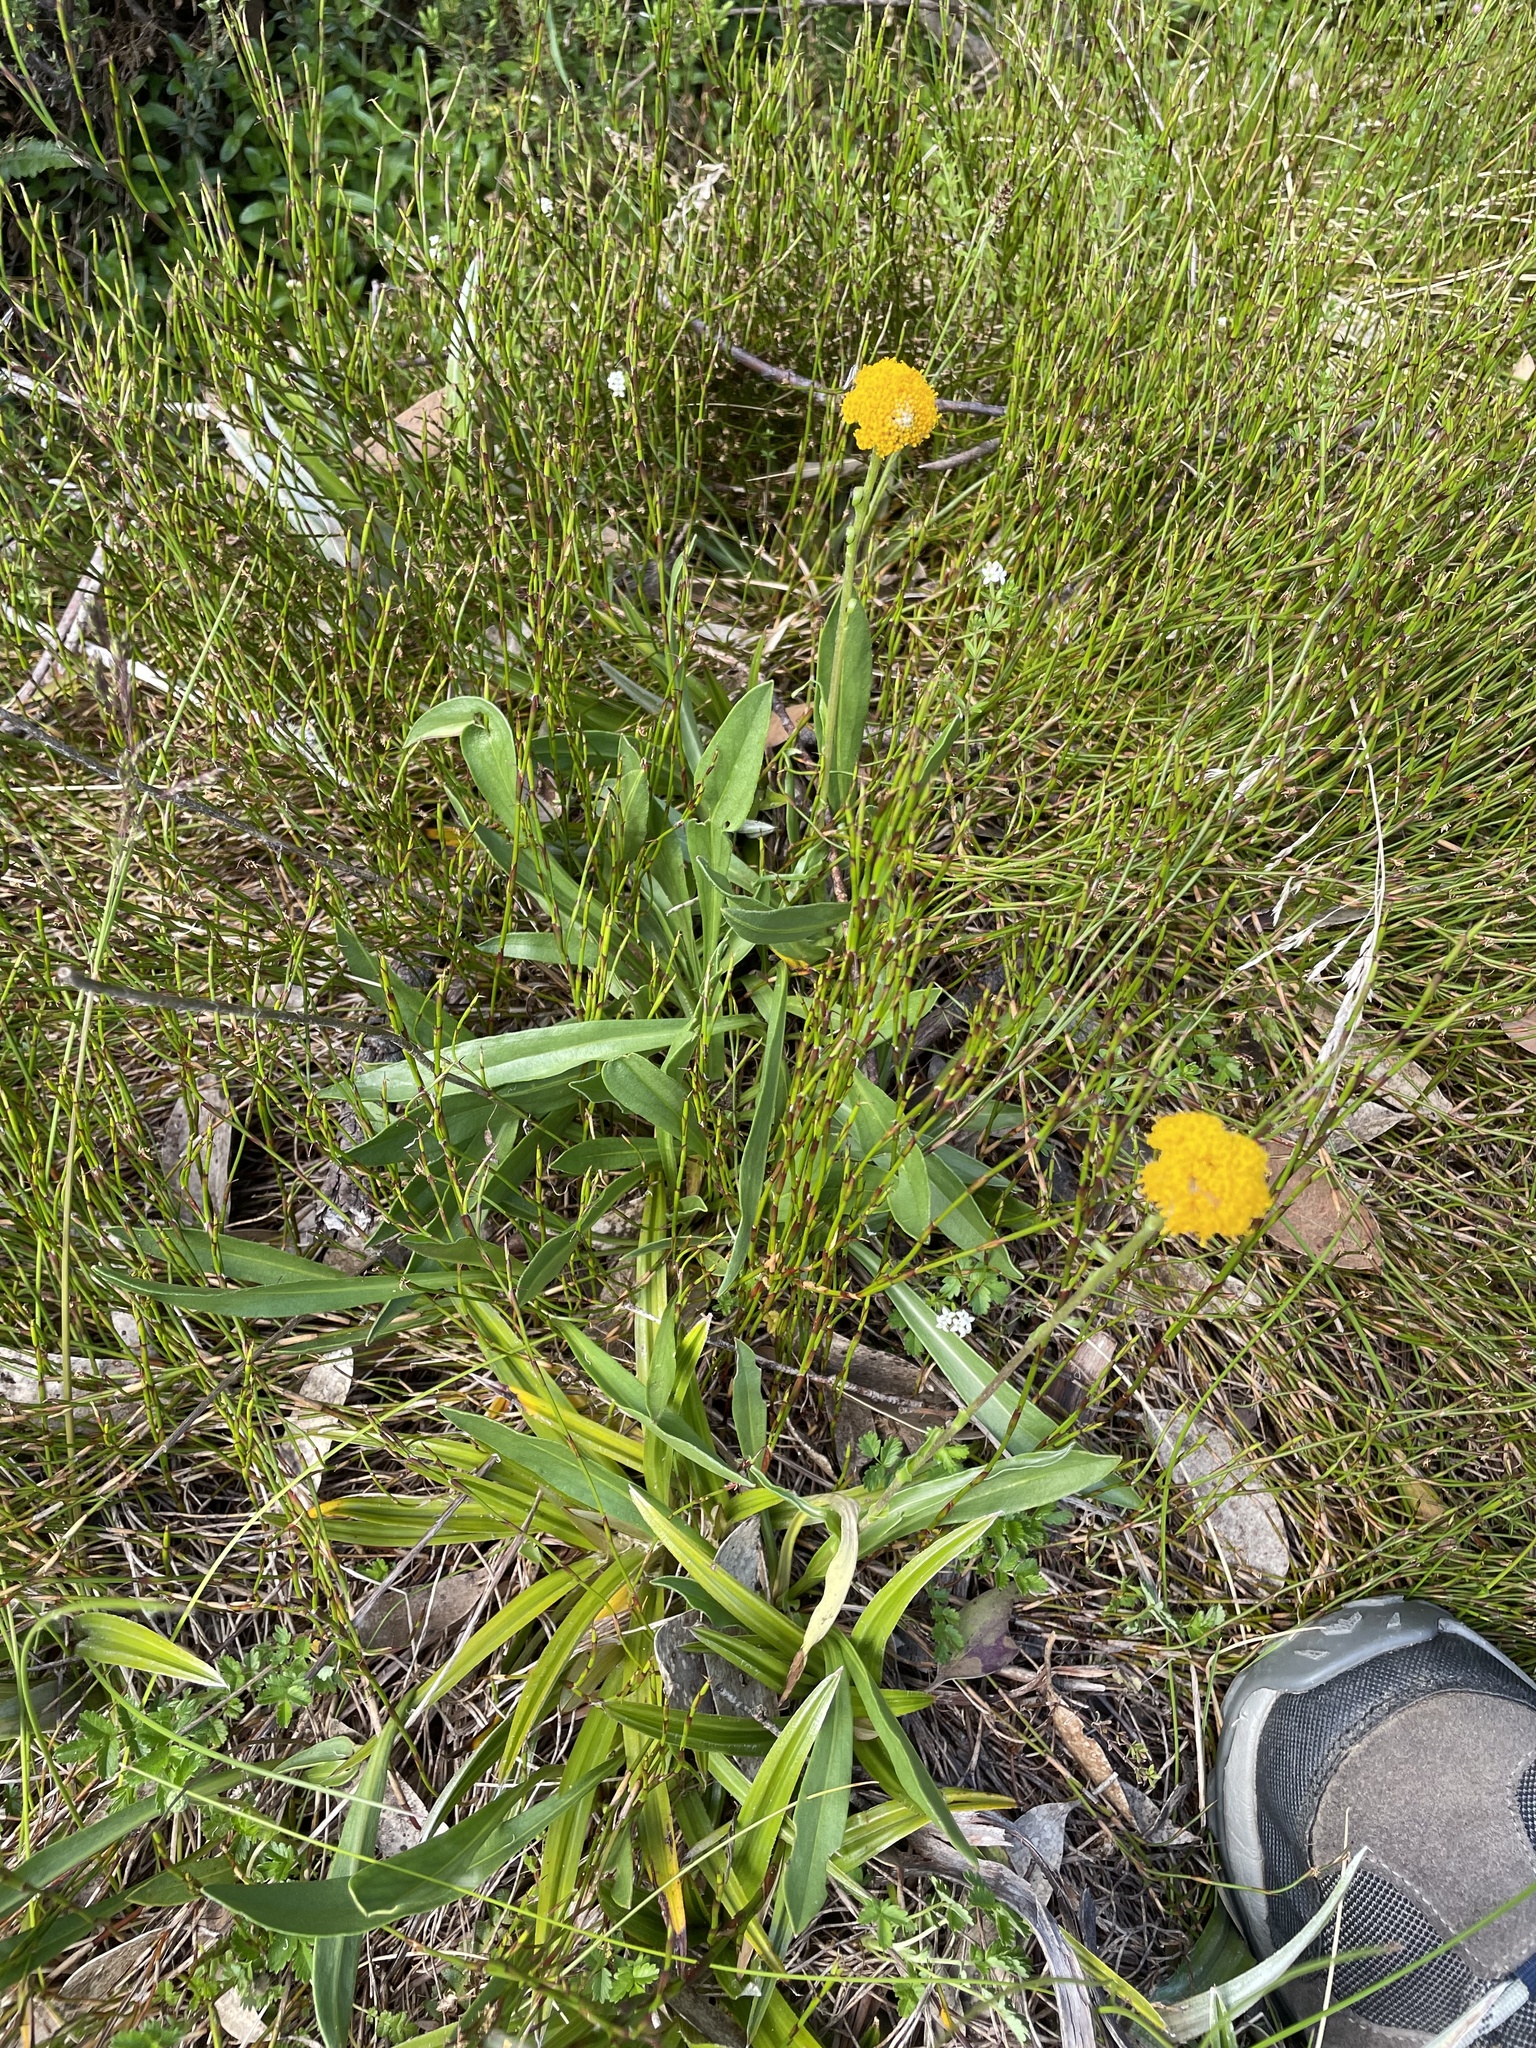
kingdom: Plantae
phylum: Tracheophyta
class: Magnoliopsida
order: Asterales
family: Asteraceae
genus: Craspedia
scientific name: Craspedia variabilis
